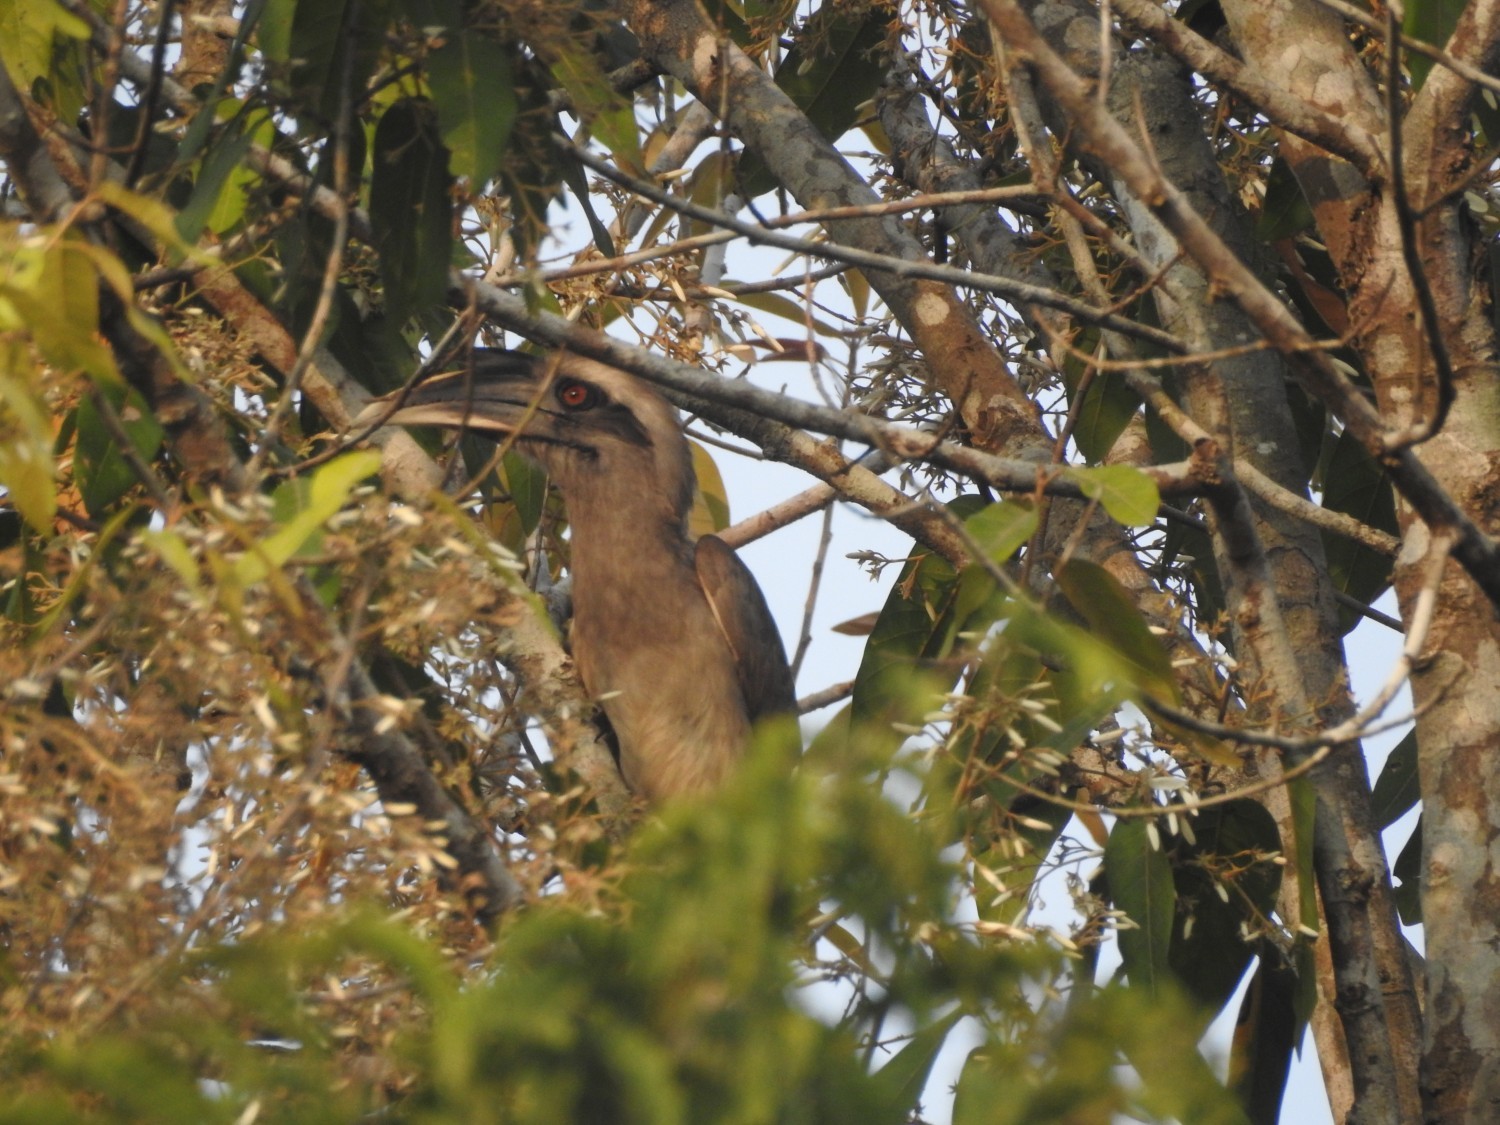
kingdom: Animalia
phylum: Chordata
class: Aves
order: Bucerotiformes
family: Bucerotidae
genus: Ocyceros
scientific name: Ocyceros birostris
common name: Indian grey hornbill
